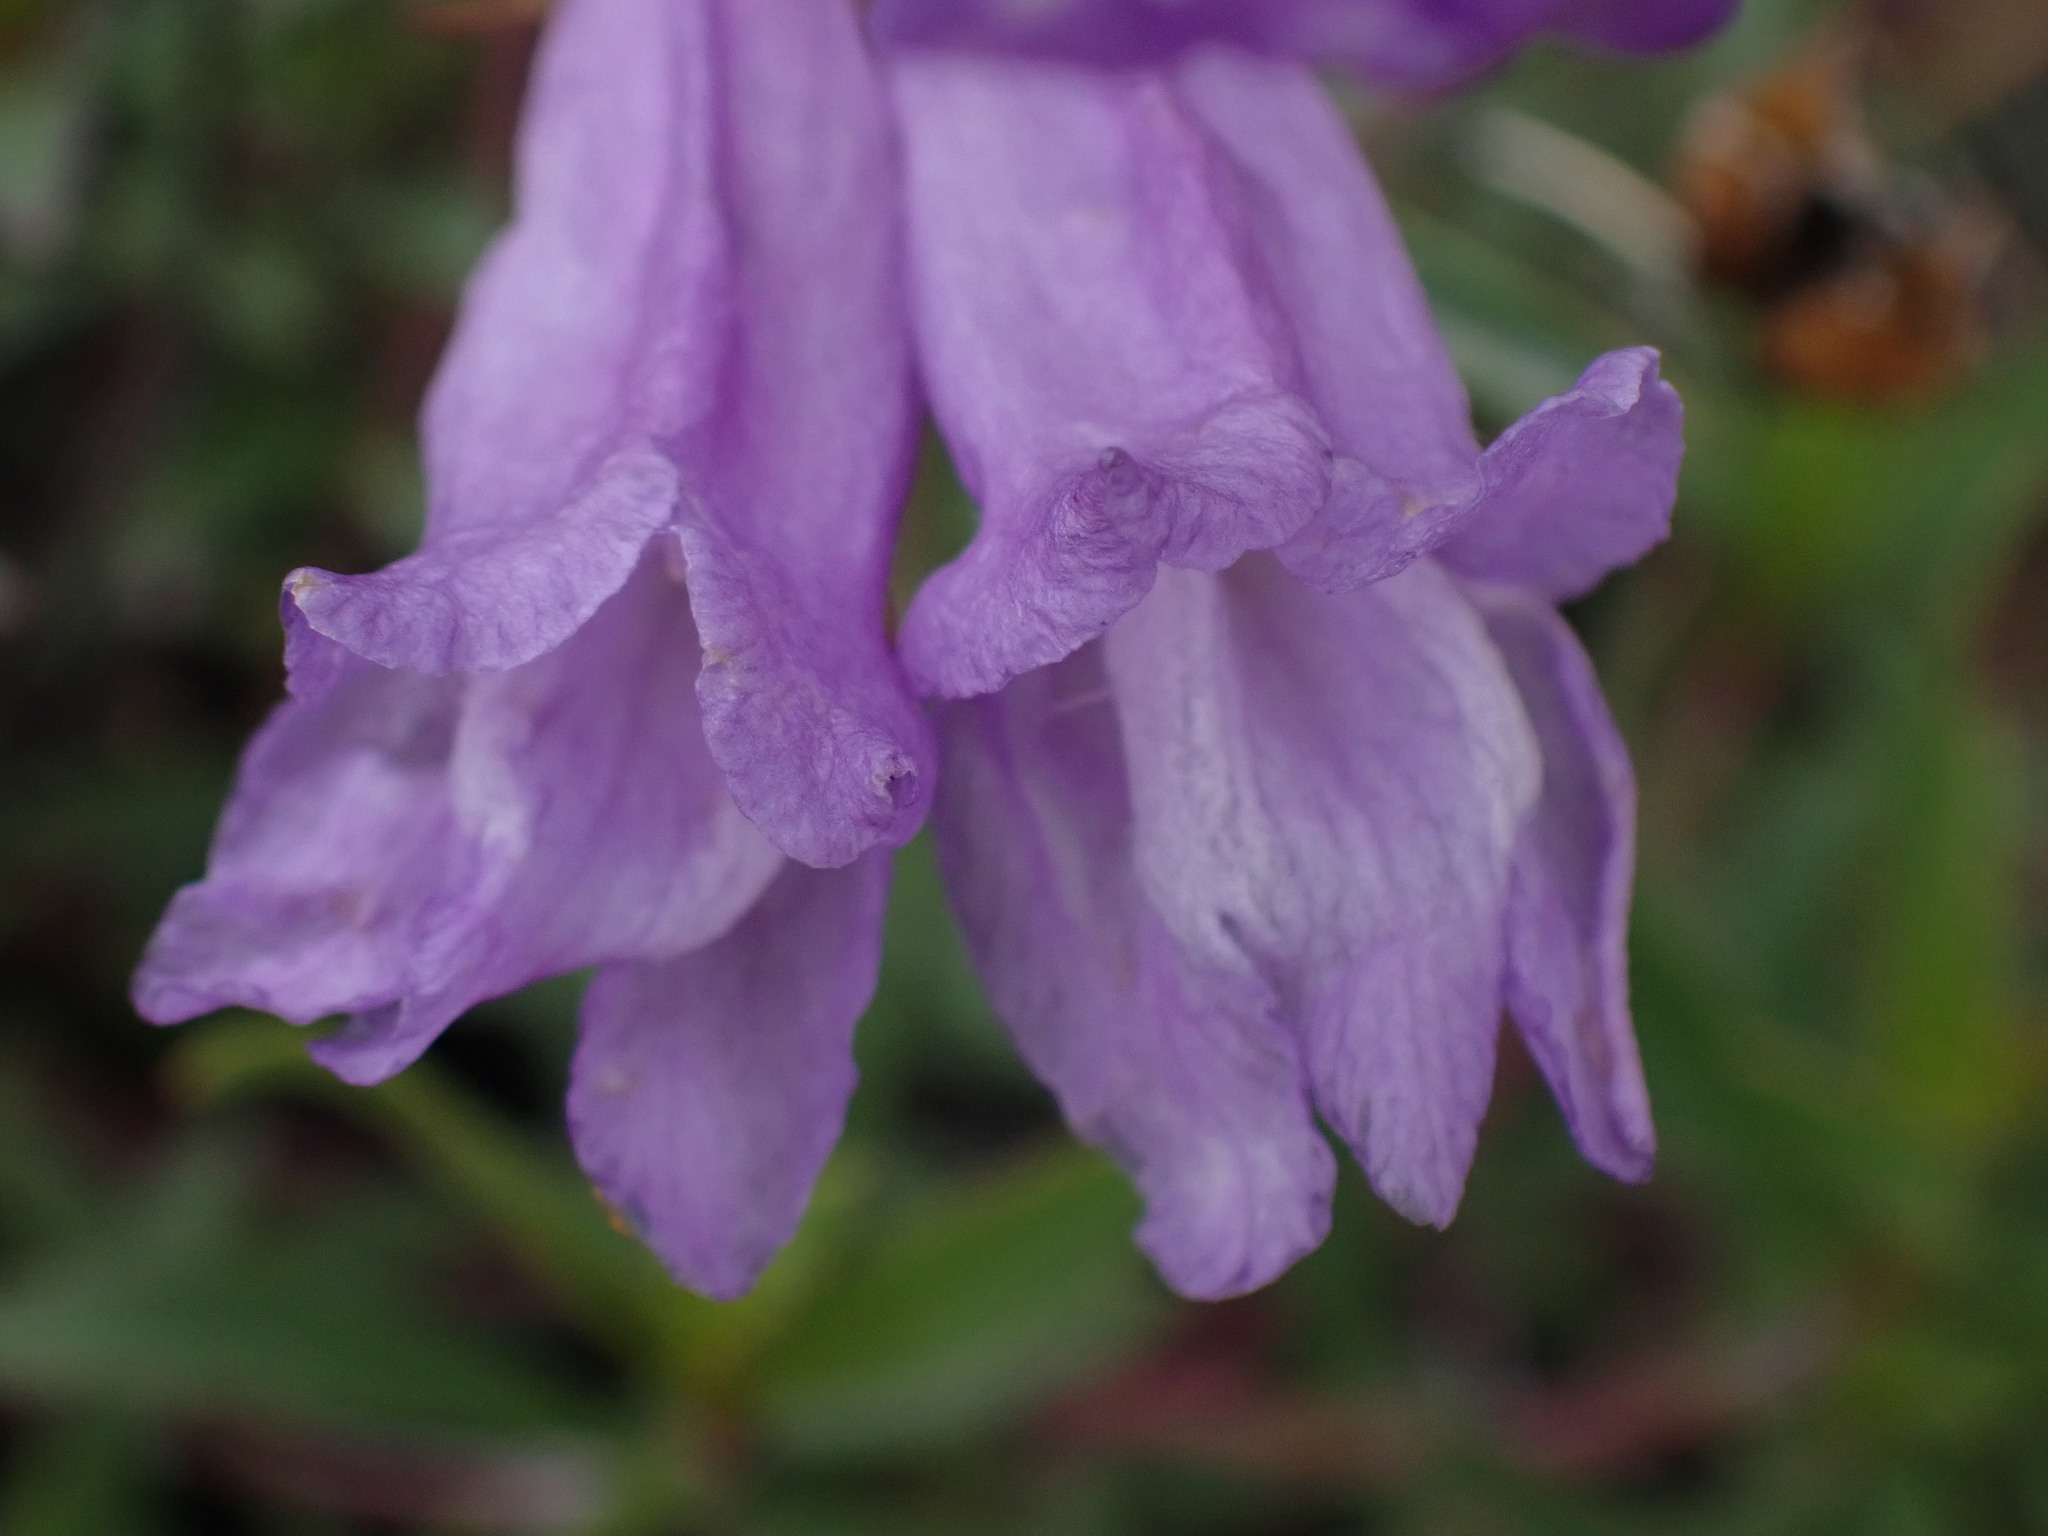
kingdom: Plantae
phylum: Tracheophyta
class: Magnoliopsida
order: Lamiales
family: Plantaginaceae
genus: Penstemon
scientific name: Penstemon fruticosus
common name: Bush penstemon
